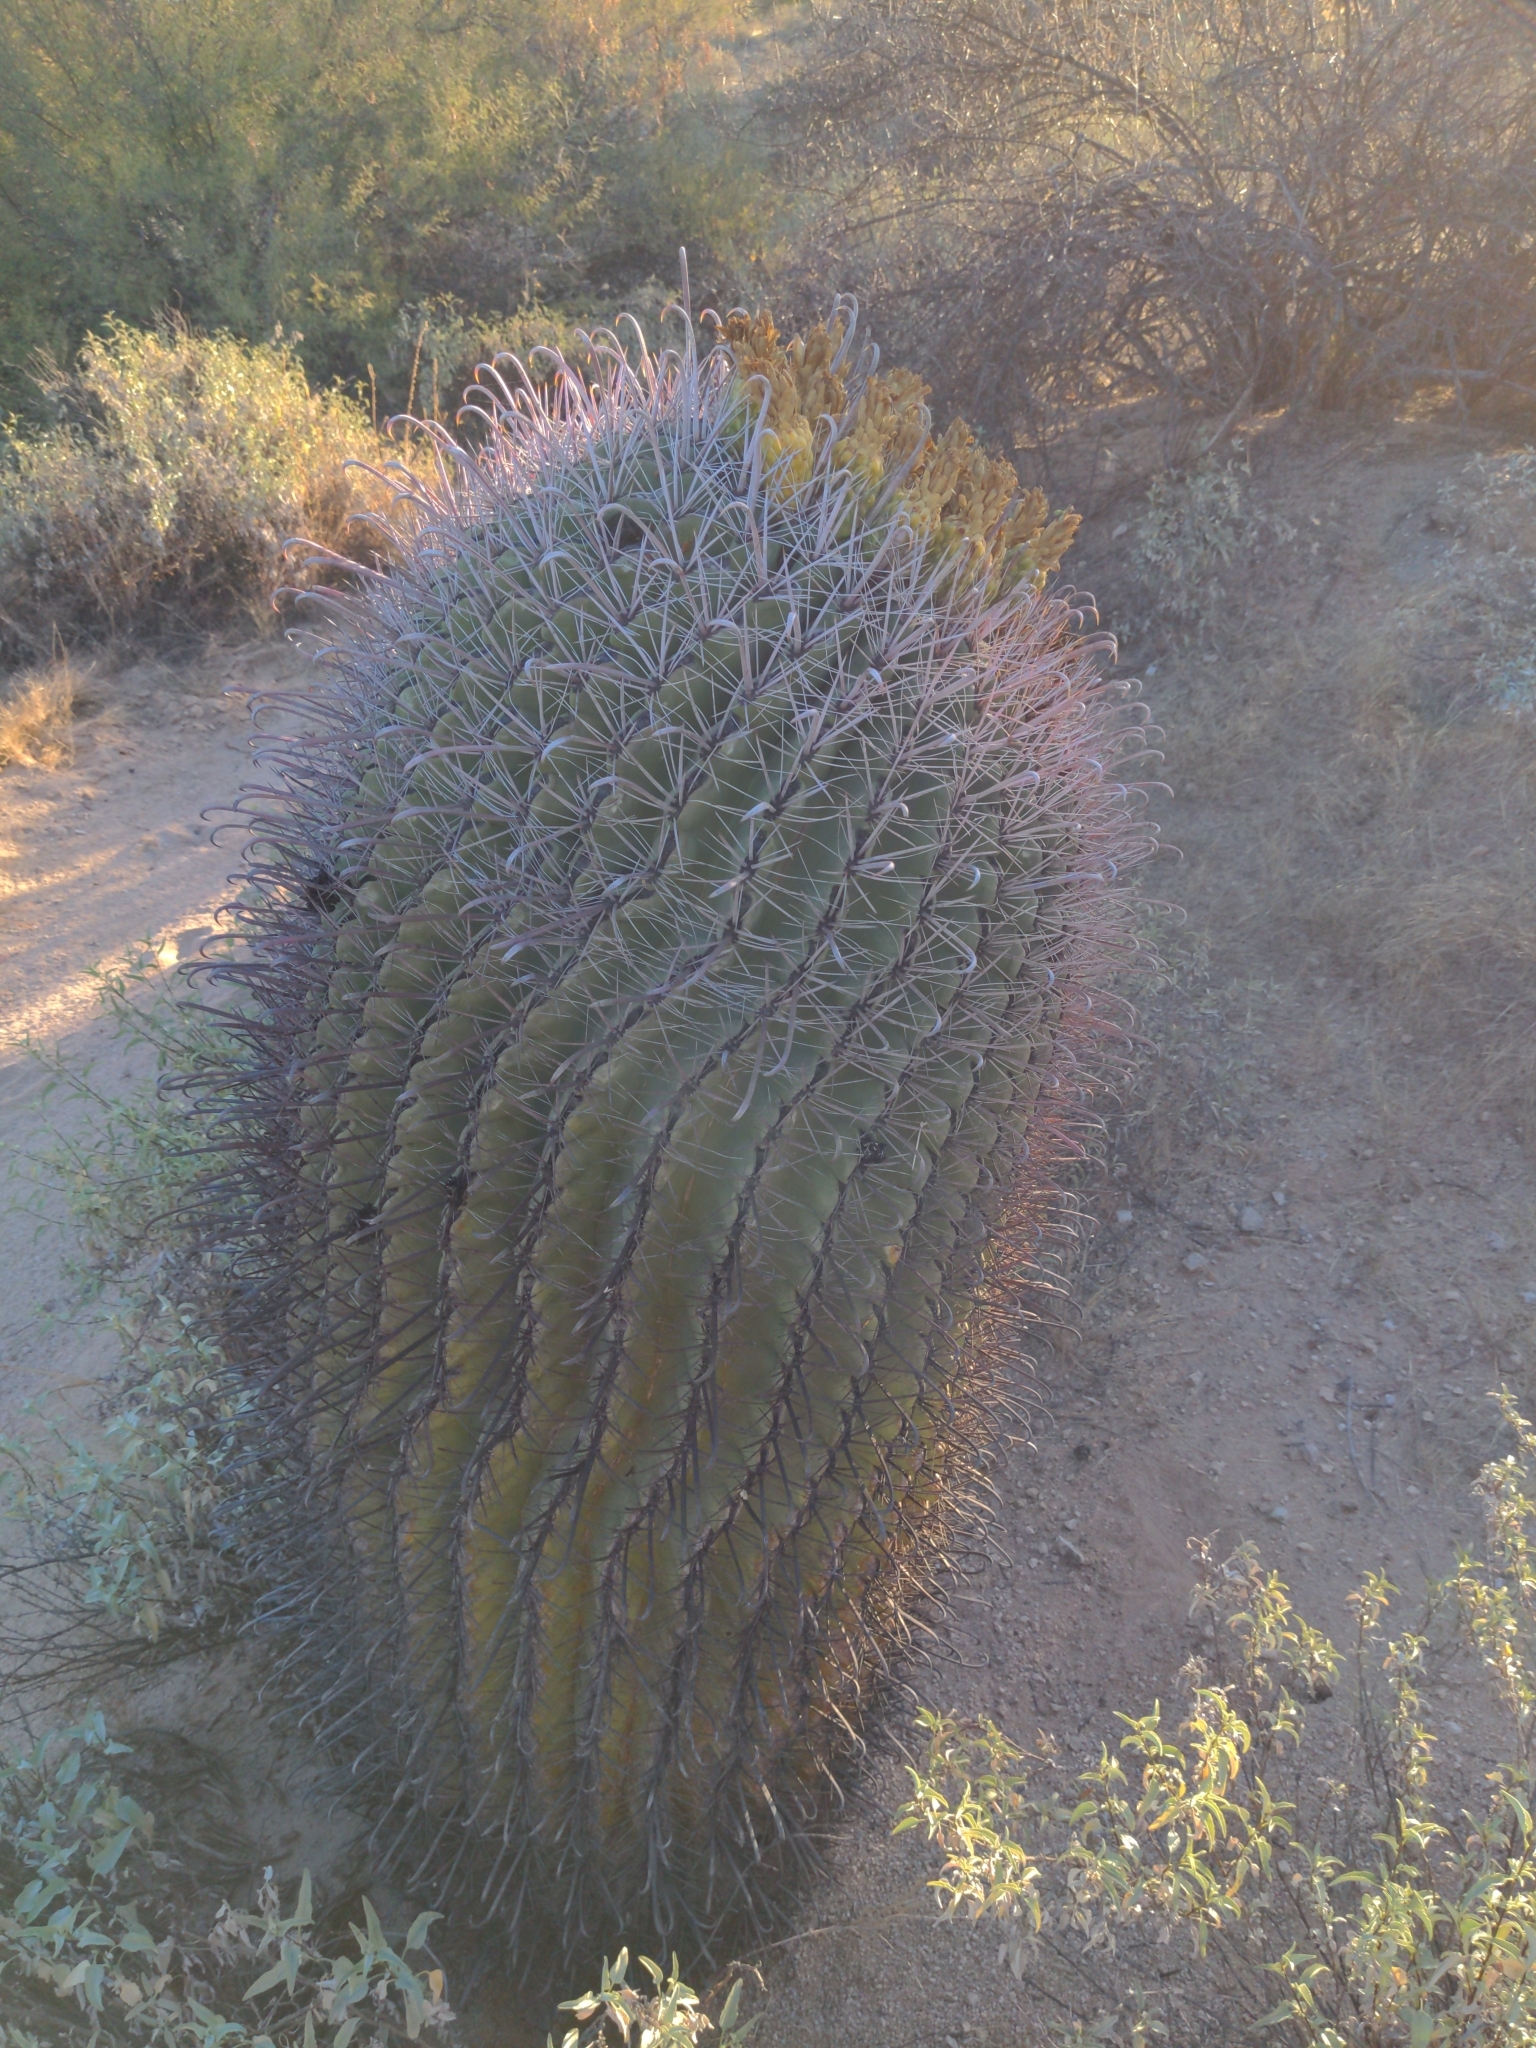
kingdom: Plantae
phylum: Tracheophyta
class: Magnoliopsida
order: Caryophyllales
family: Cactaceae
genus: Ferocactus
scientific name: Ferocactus wislizeni
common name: Candy barrel cactus
